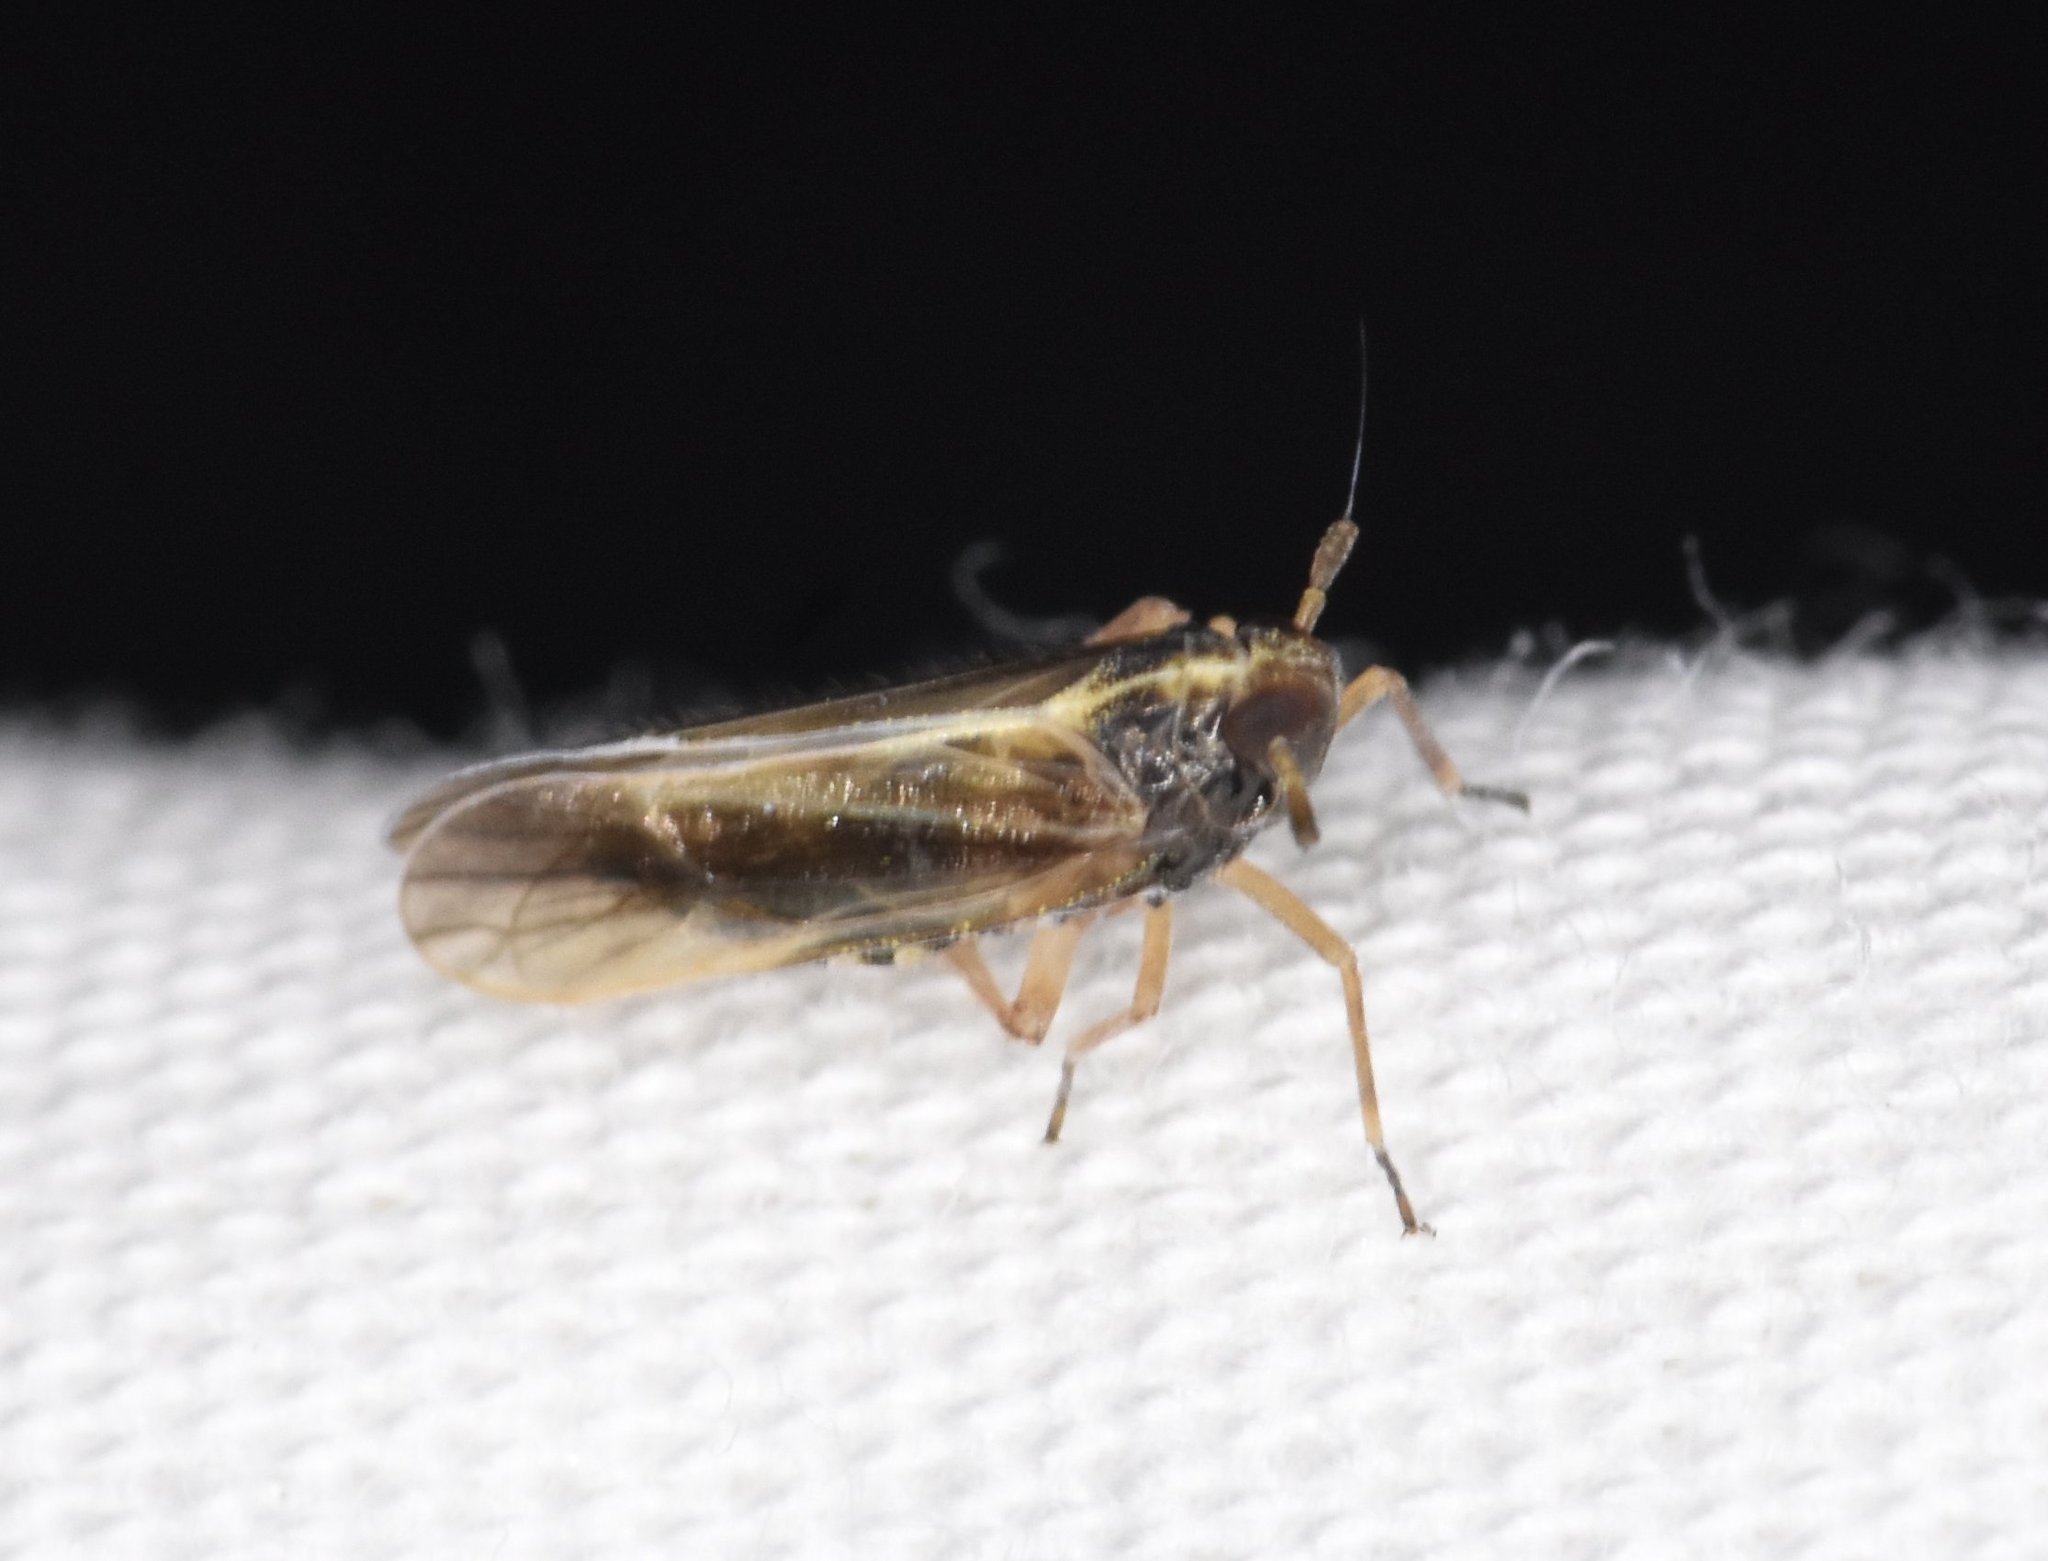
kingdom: Animalia
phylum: Arthropoda
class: Insecta
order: Hemiptera
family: Delphacidae
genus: Tarophagus
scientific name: Tarophagus colocasiae
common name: Taro planthopper
